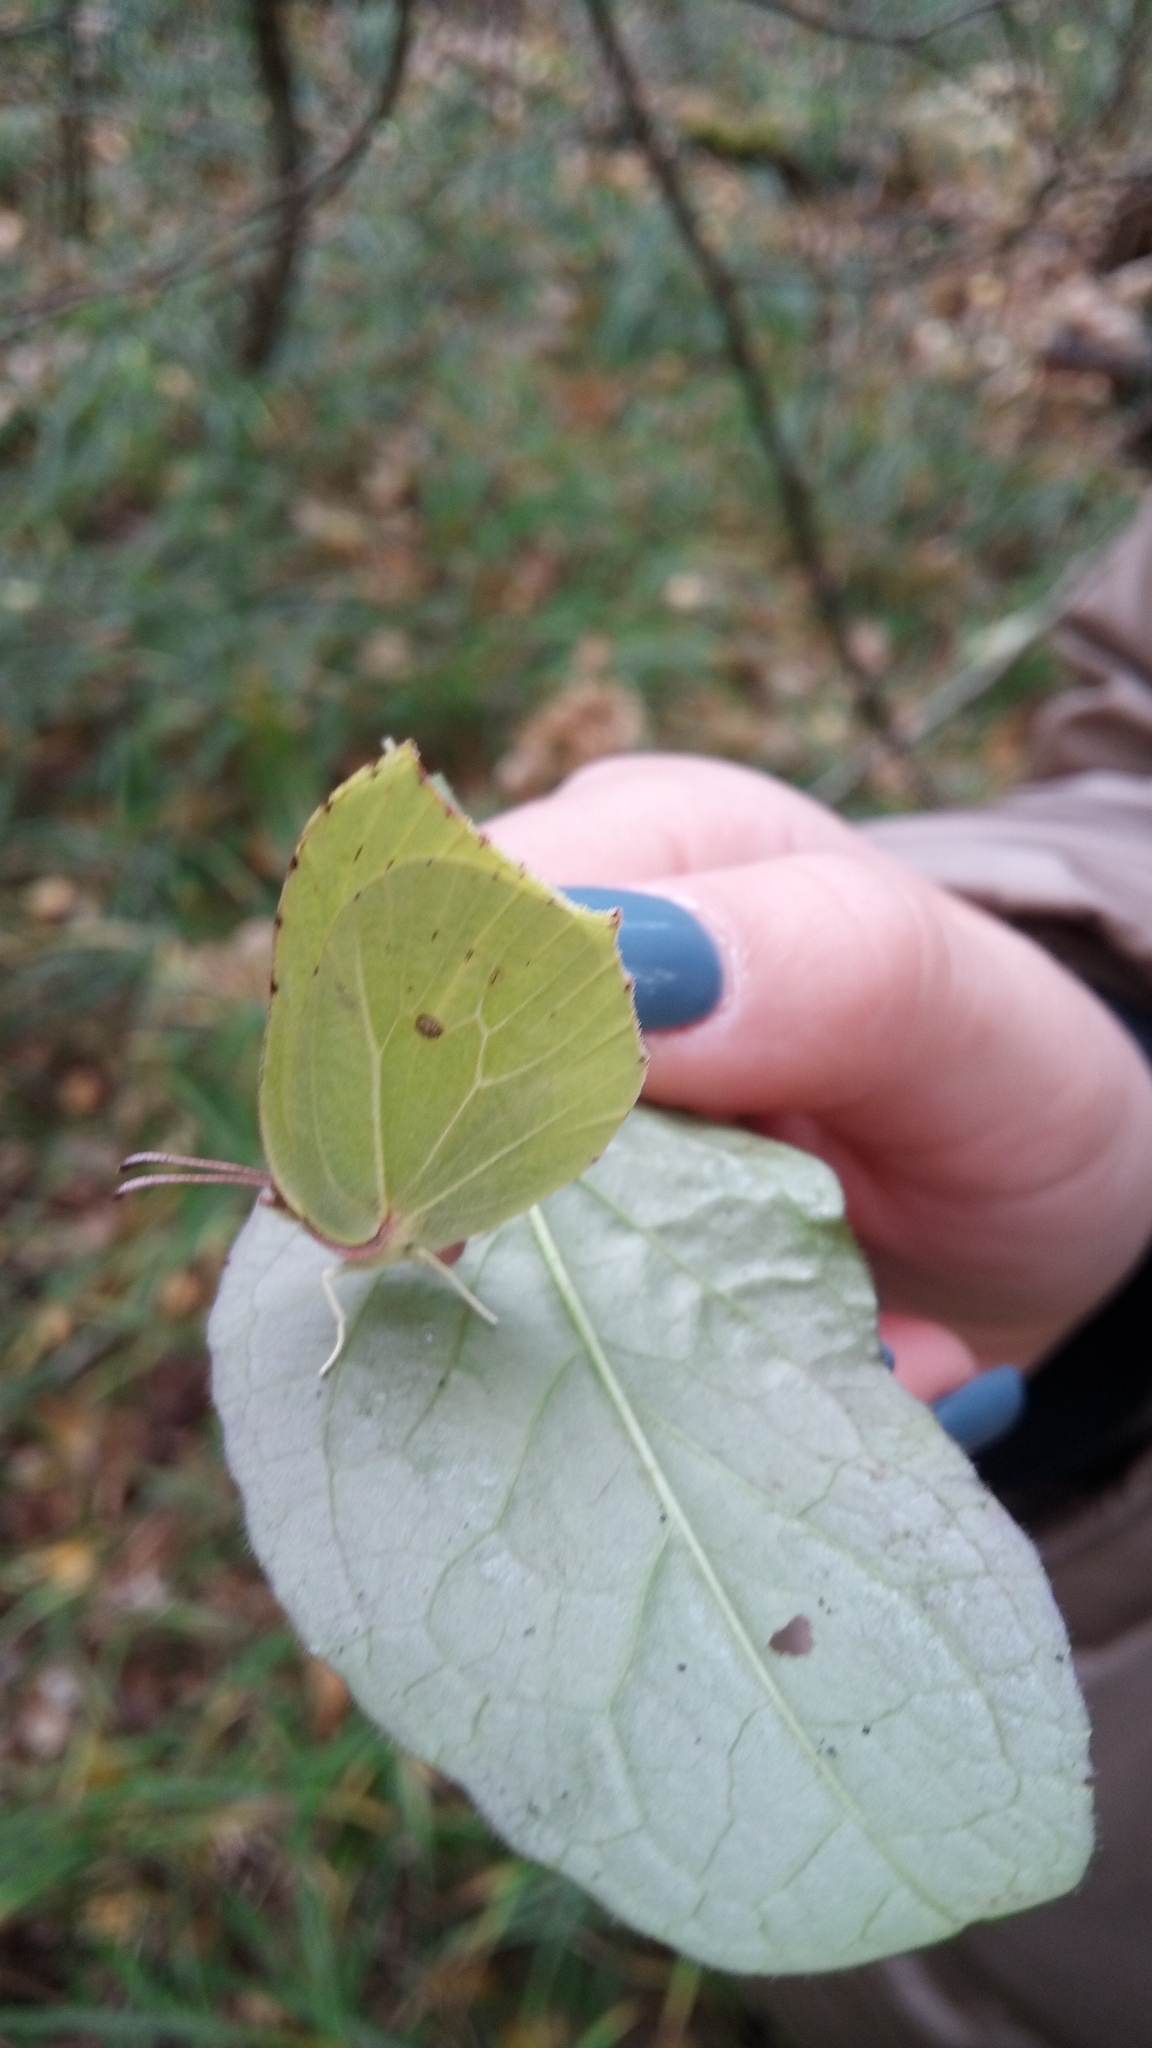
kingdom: Animalia
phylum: Arthropoda
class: Insecta
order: Lepidoptera
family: Pieridae
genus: Gonepteryx
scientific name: Gonepteryx rhamni
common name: Brimstone
